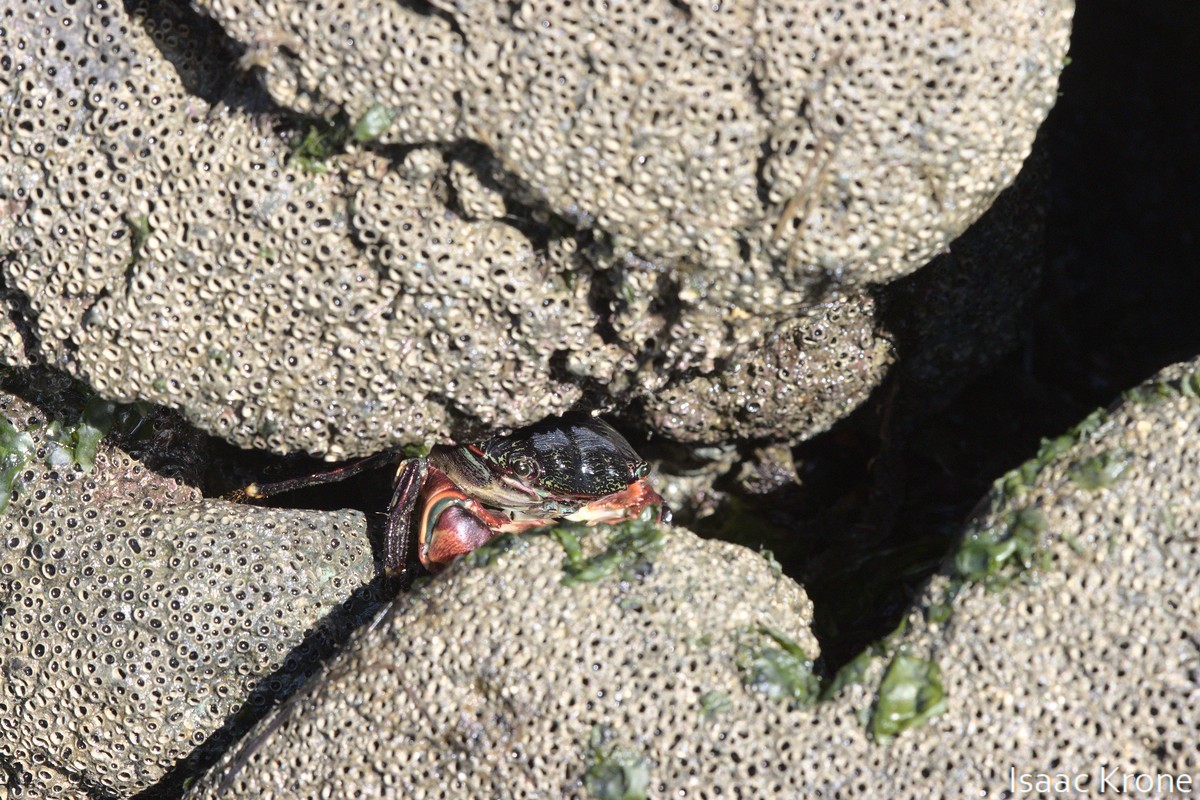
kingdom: Animalia
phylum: Arthropoda
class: Malacostraca
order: Decapoda
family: Grapsidae
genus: Pachygrapsus
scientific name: Pachygrapsus crassipes
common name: Striped shore crab
